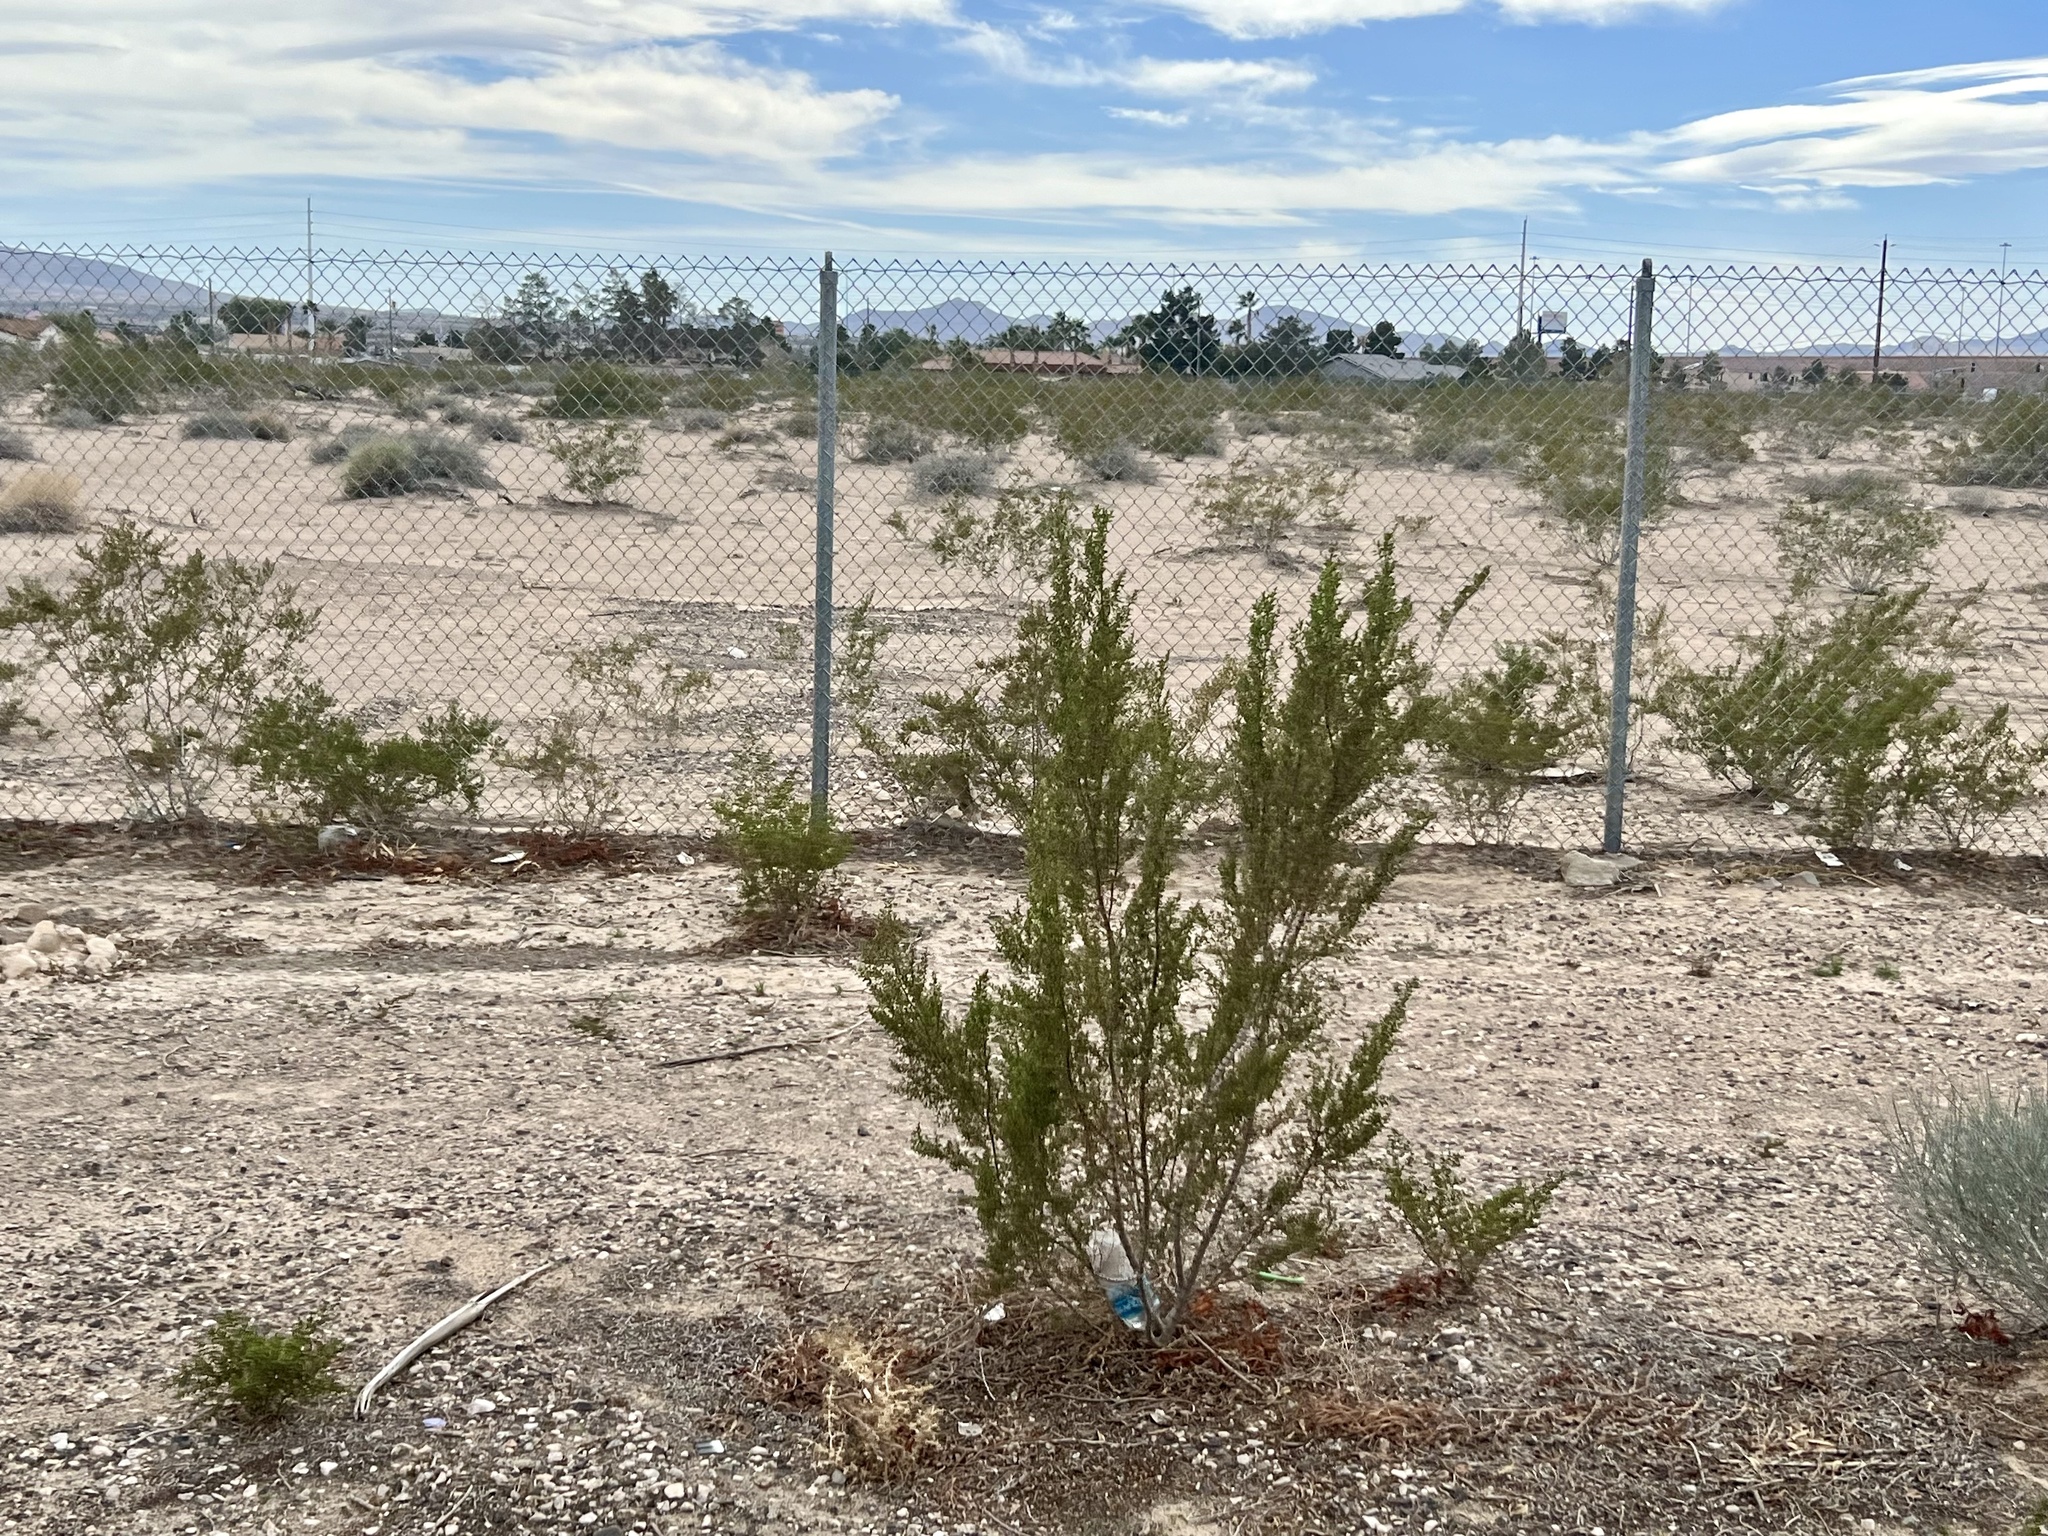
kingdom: Plantae
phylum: Tracheophyta
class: Magnoliopsida
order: Zygophyllales
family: Zygophyllaceae
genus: Larrea
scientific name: Larrea tridentata
